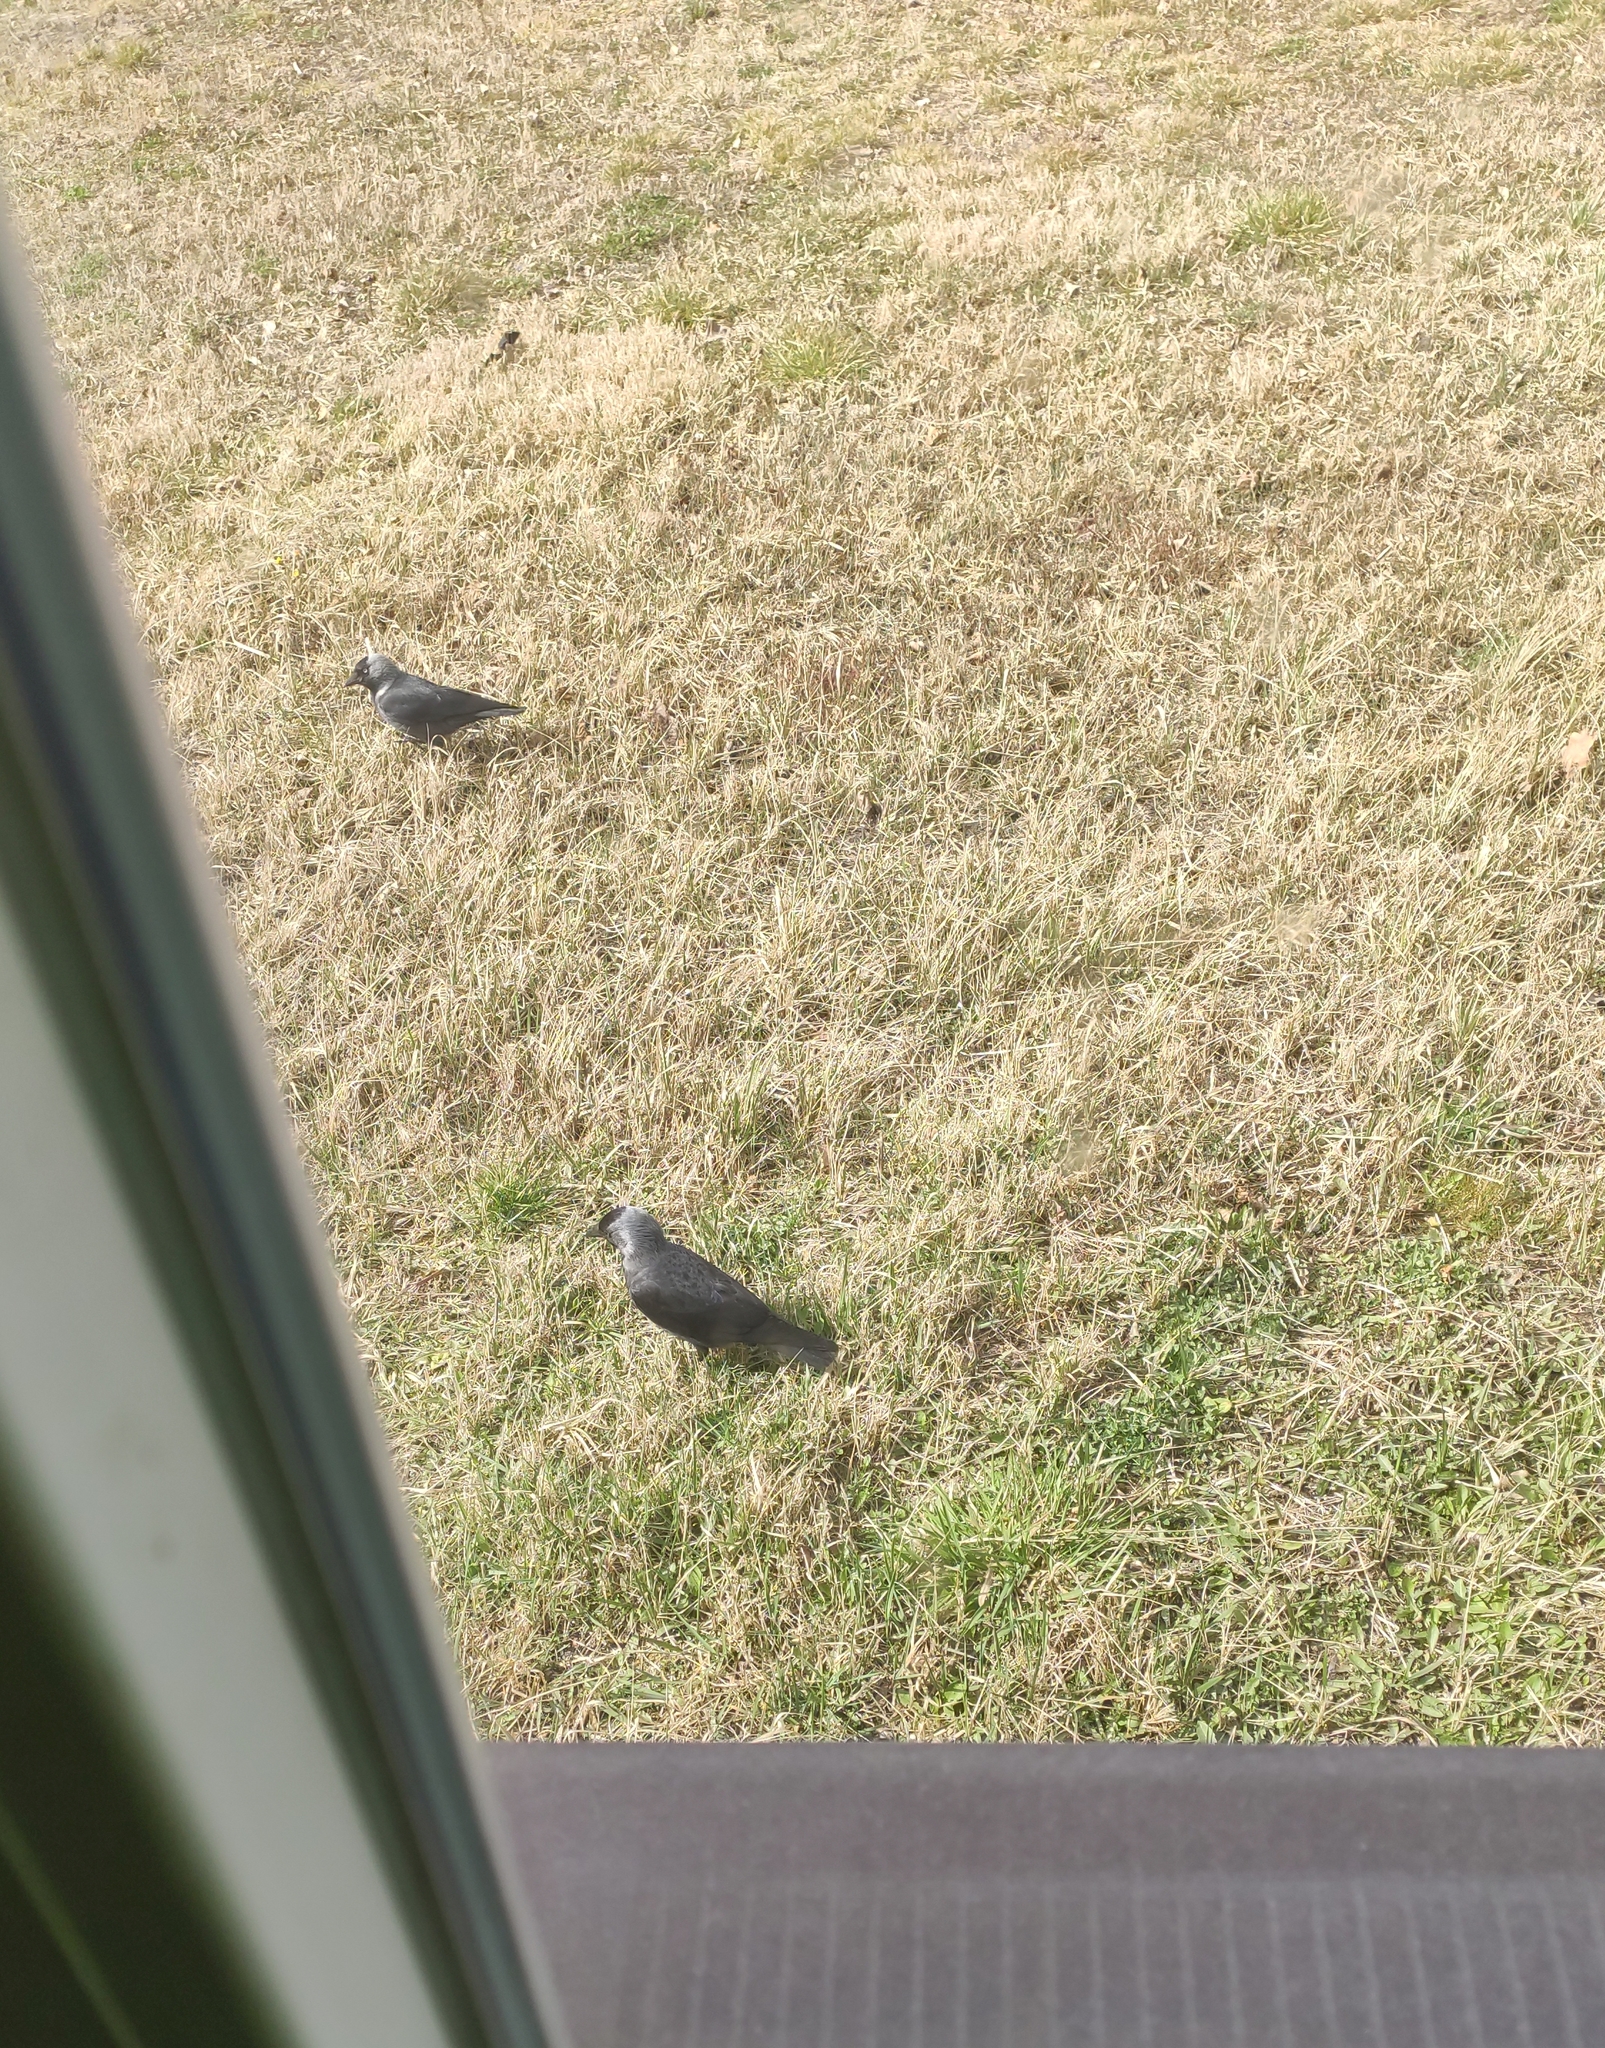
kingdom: Animalia
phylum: Chordata
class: Aves
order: Passeriformes
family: Corvidae
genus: Coloeus
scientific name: Coloeus monedula
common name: Western jackdaw
